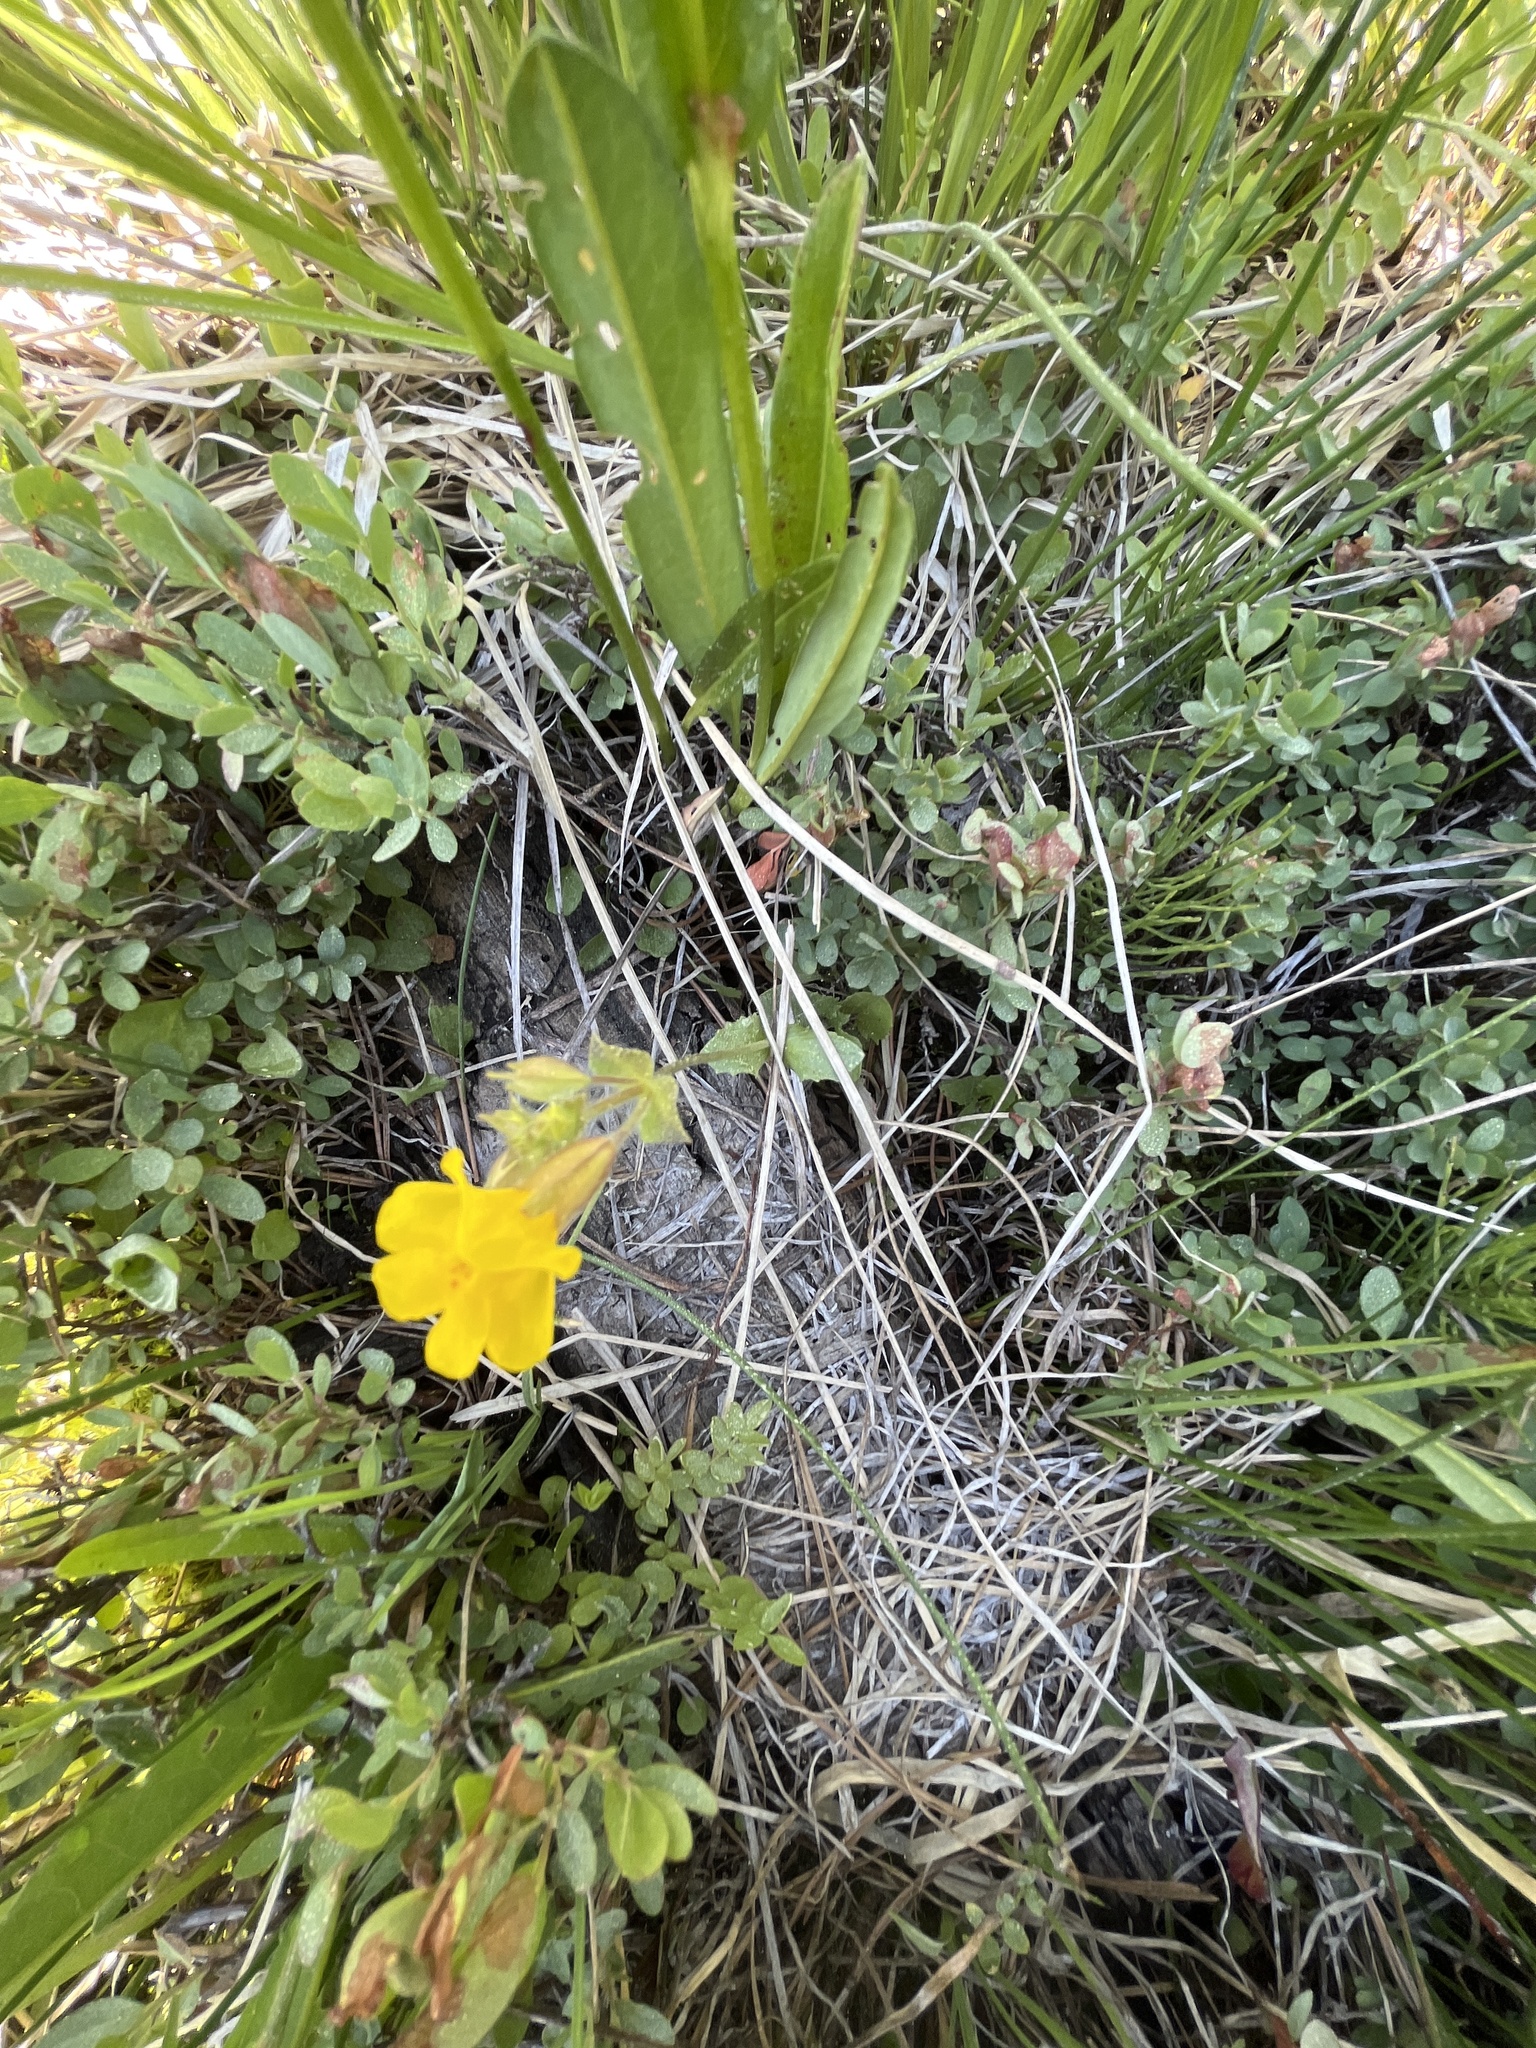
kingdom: Plantae
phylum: Tracheophyta
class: Magnoliopsida
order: Lamiales
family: Phrymaceae
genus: Erythranthe
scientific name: Erythranthe guttata
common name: Monkeyflower
